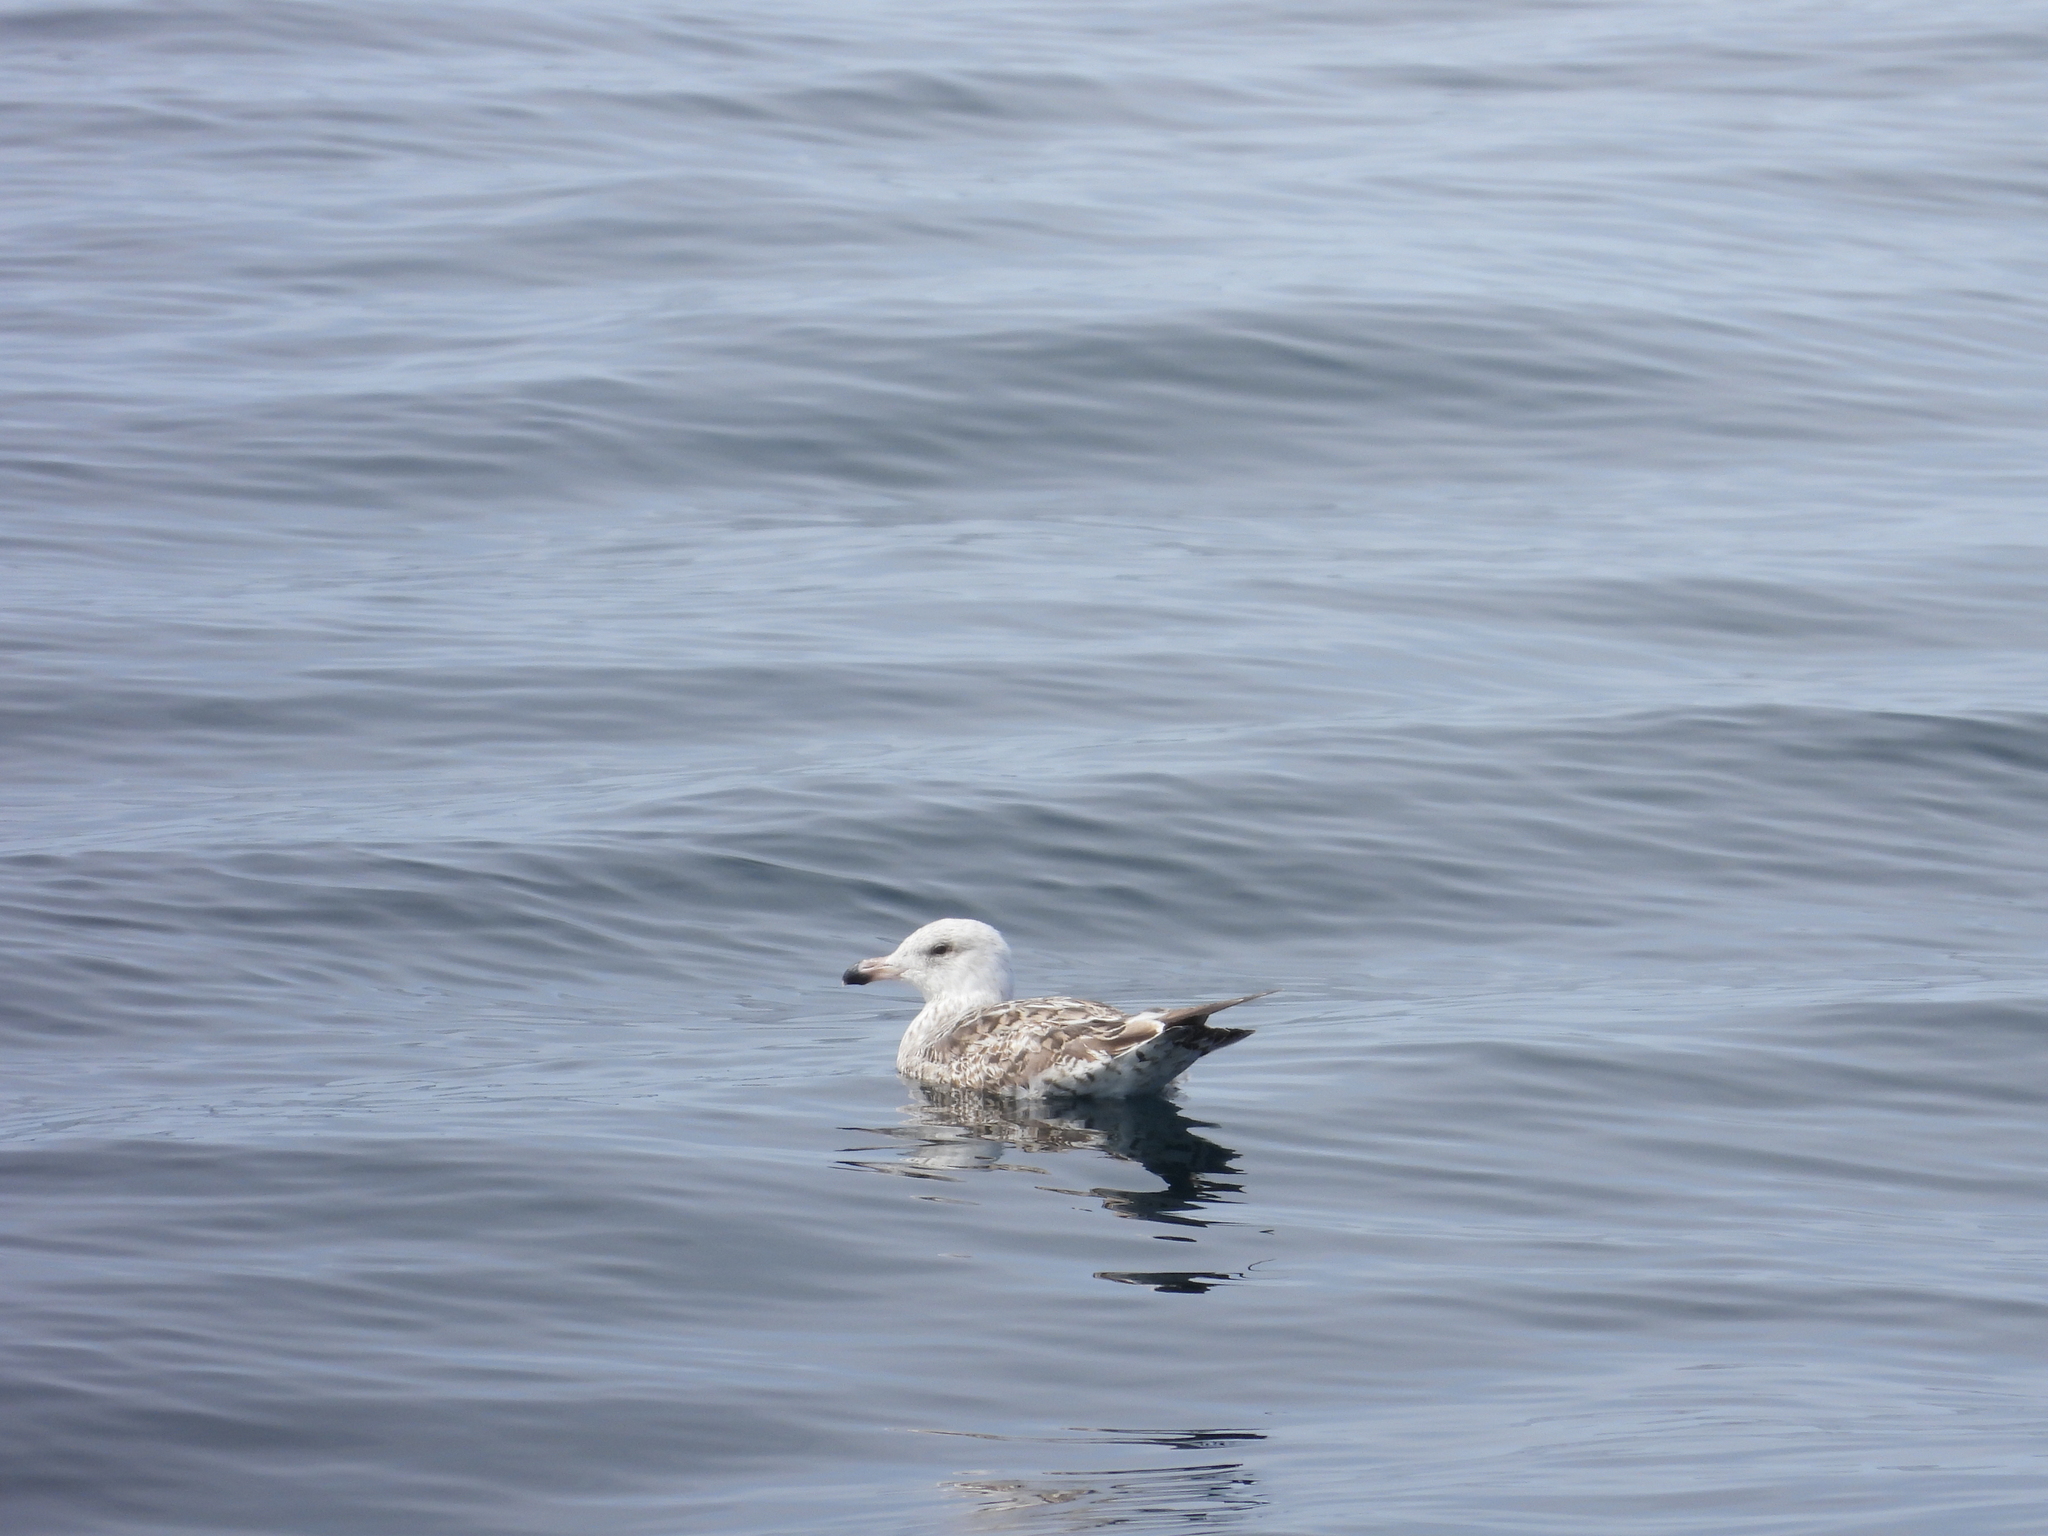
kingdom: Animalia
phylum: Chordata
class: Aves
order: Charadriiformes
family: Laridae
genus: Larus
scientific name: Larus marinus
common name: Great black-backed gull
